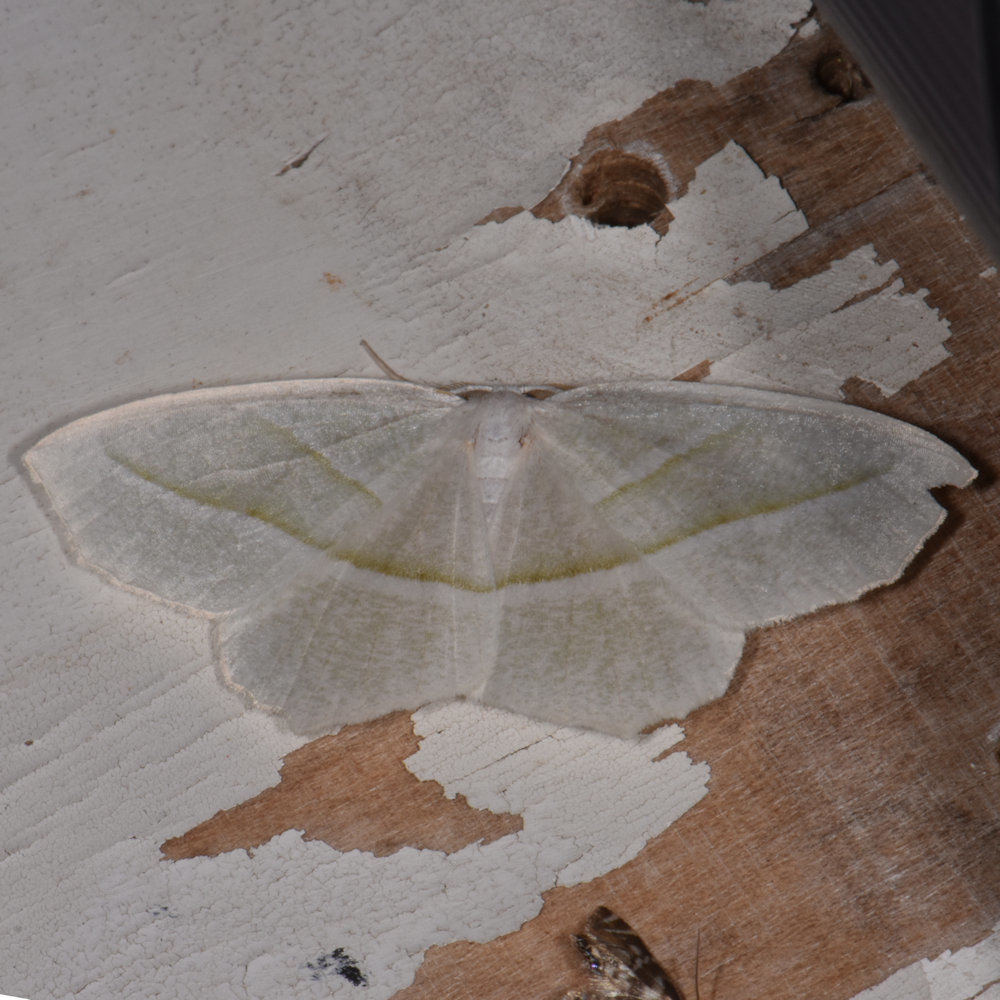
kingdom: Animalia
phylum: Arthropoda
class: Insecta
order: Lepidoptera
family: Geometridae
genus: Campaea
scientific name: Campaea perlata
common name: Fringed looper
